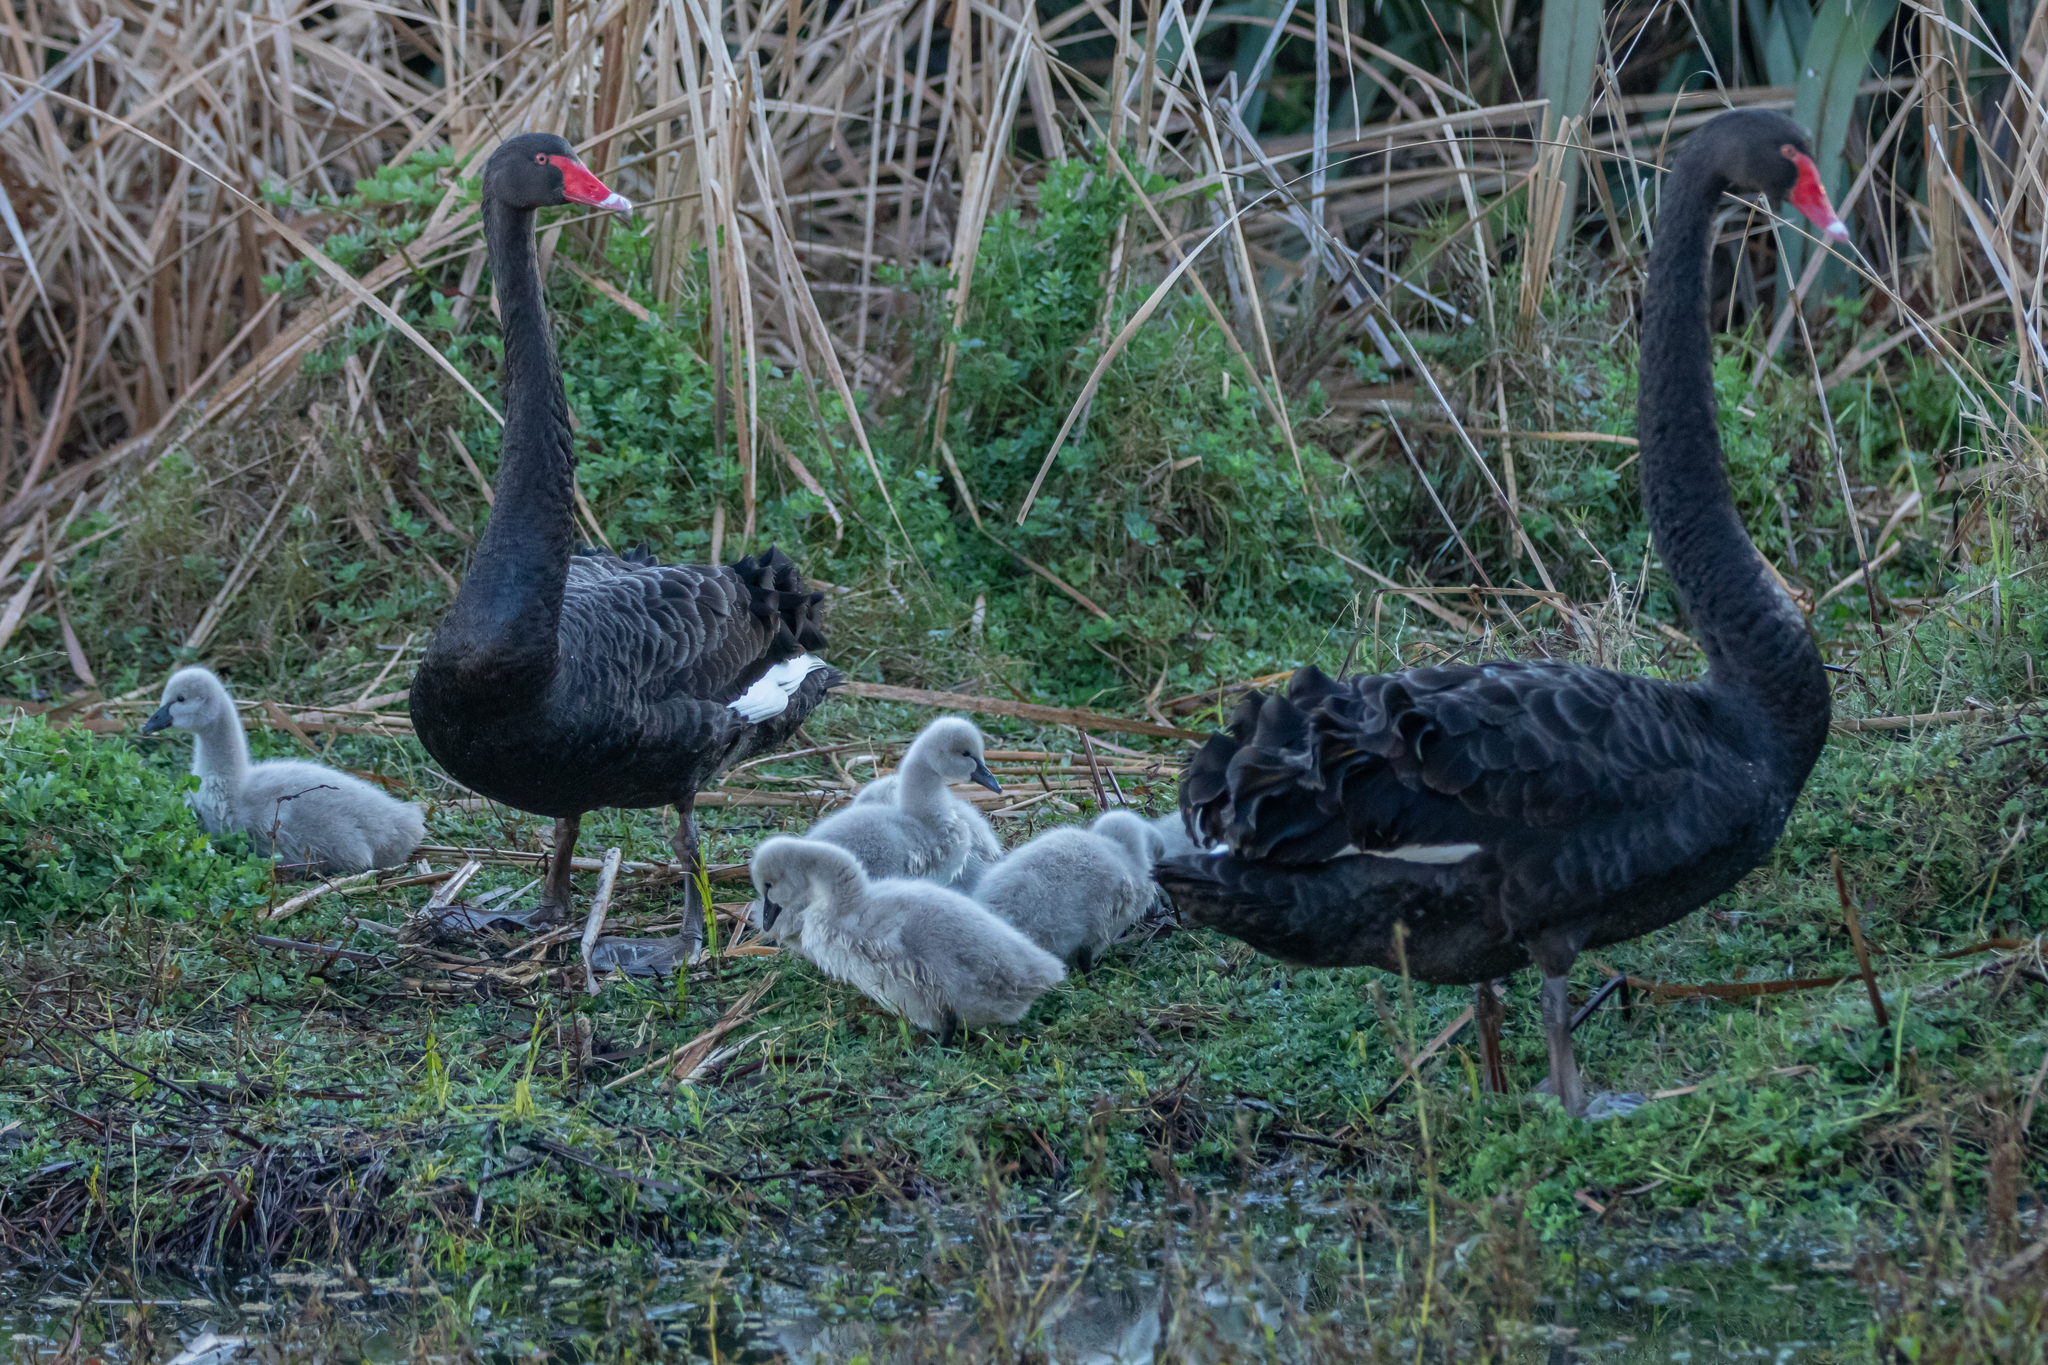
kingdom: Animalia
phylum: Chordata
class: Aves
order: Anseriformes
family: Anatidae
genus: Cygnus
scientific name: Cygnus atratus
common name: Black swan
